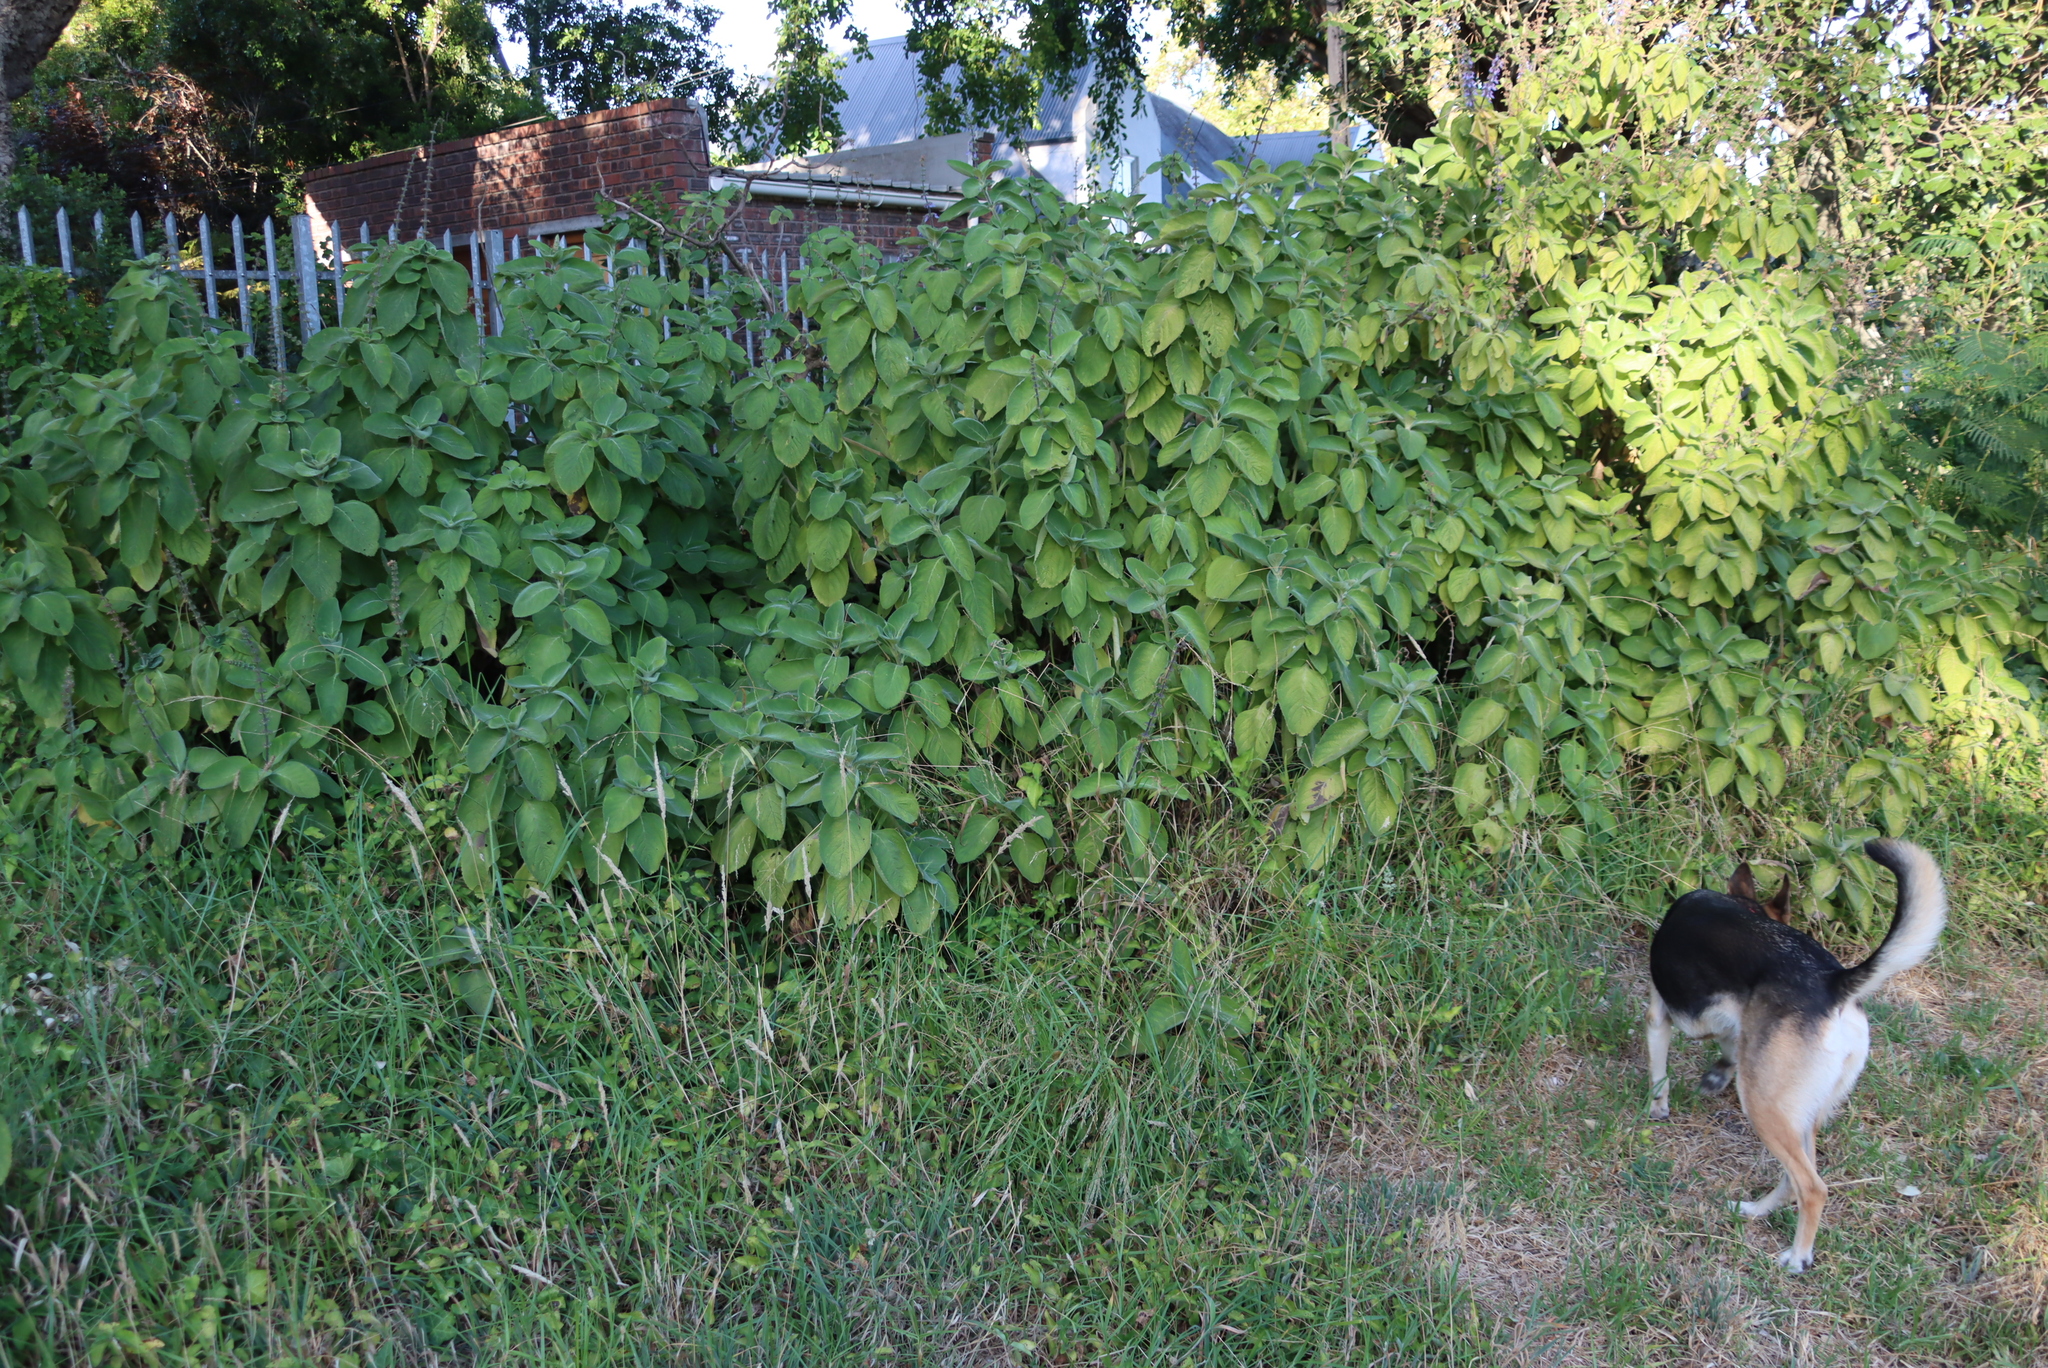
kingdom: Plantae
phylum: Tracheophyta
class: Magnoliopsida
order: Lamiales
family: Lamiaceae
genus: Coleus
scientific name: Coleus barbatus
